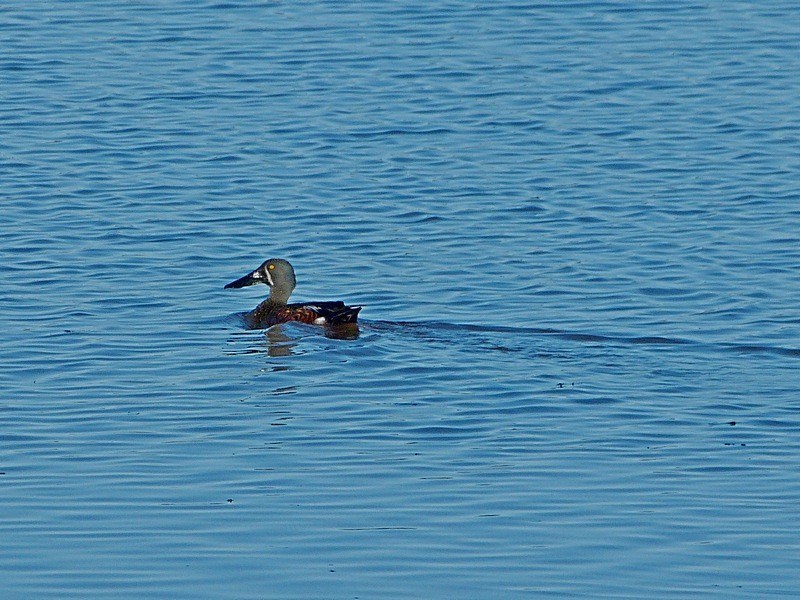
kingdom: Animalia
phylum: Chordata
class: Aves
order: Anseriformes
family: Anatidae
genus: Spatula
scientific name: Spatula rhynchotis
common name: Australian shoveler
